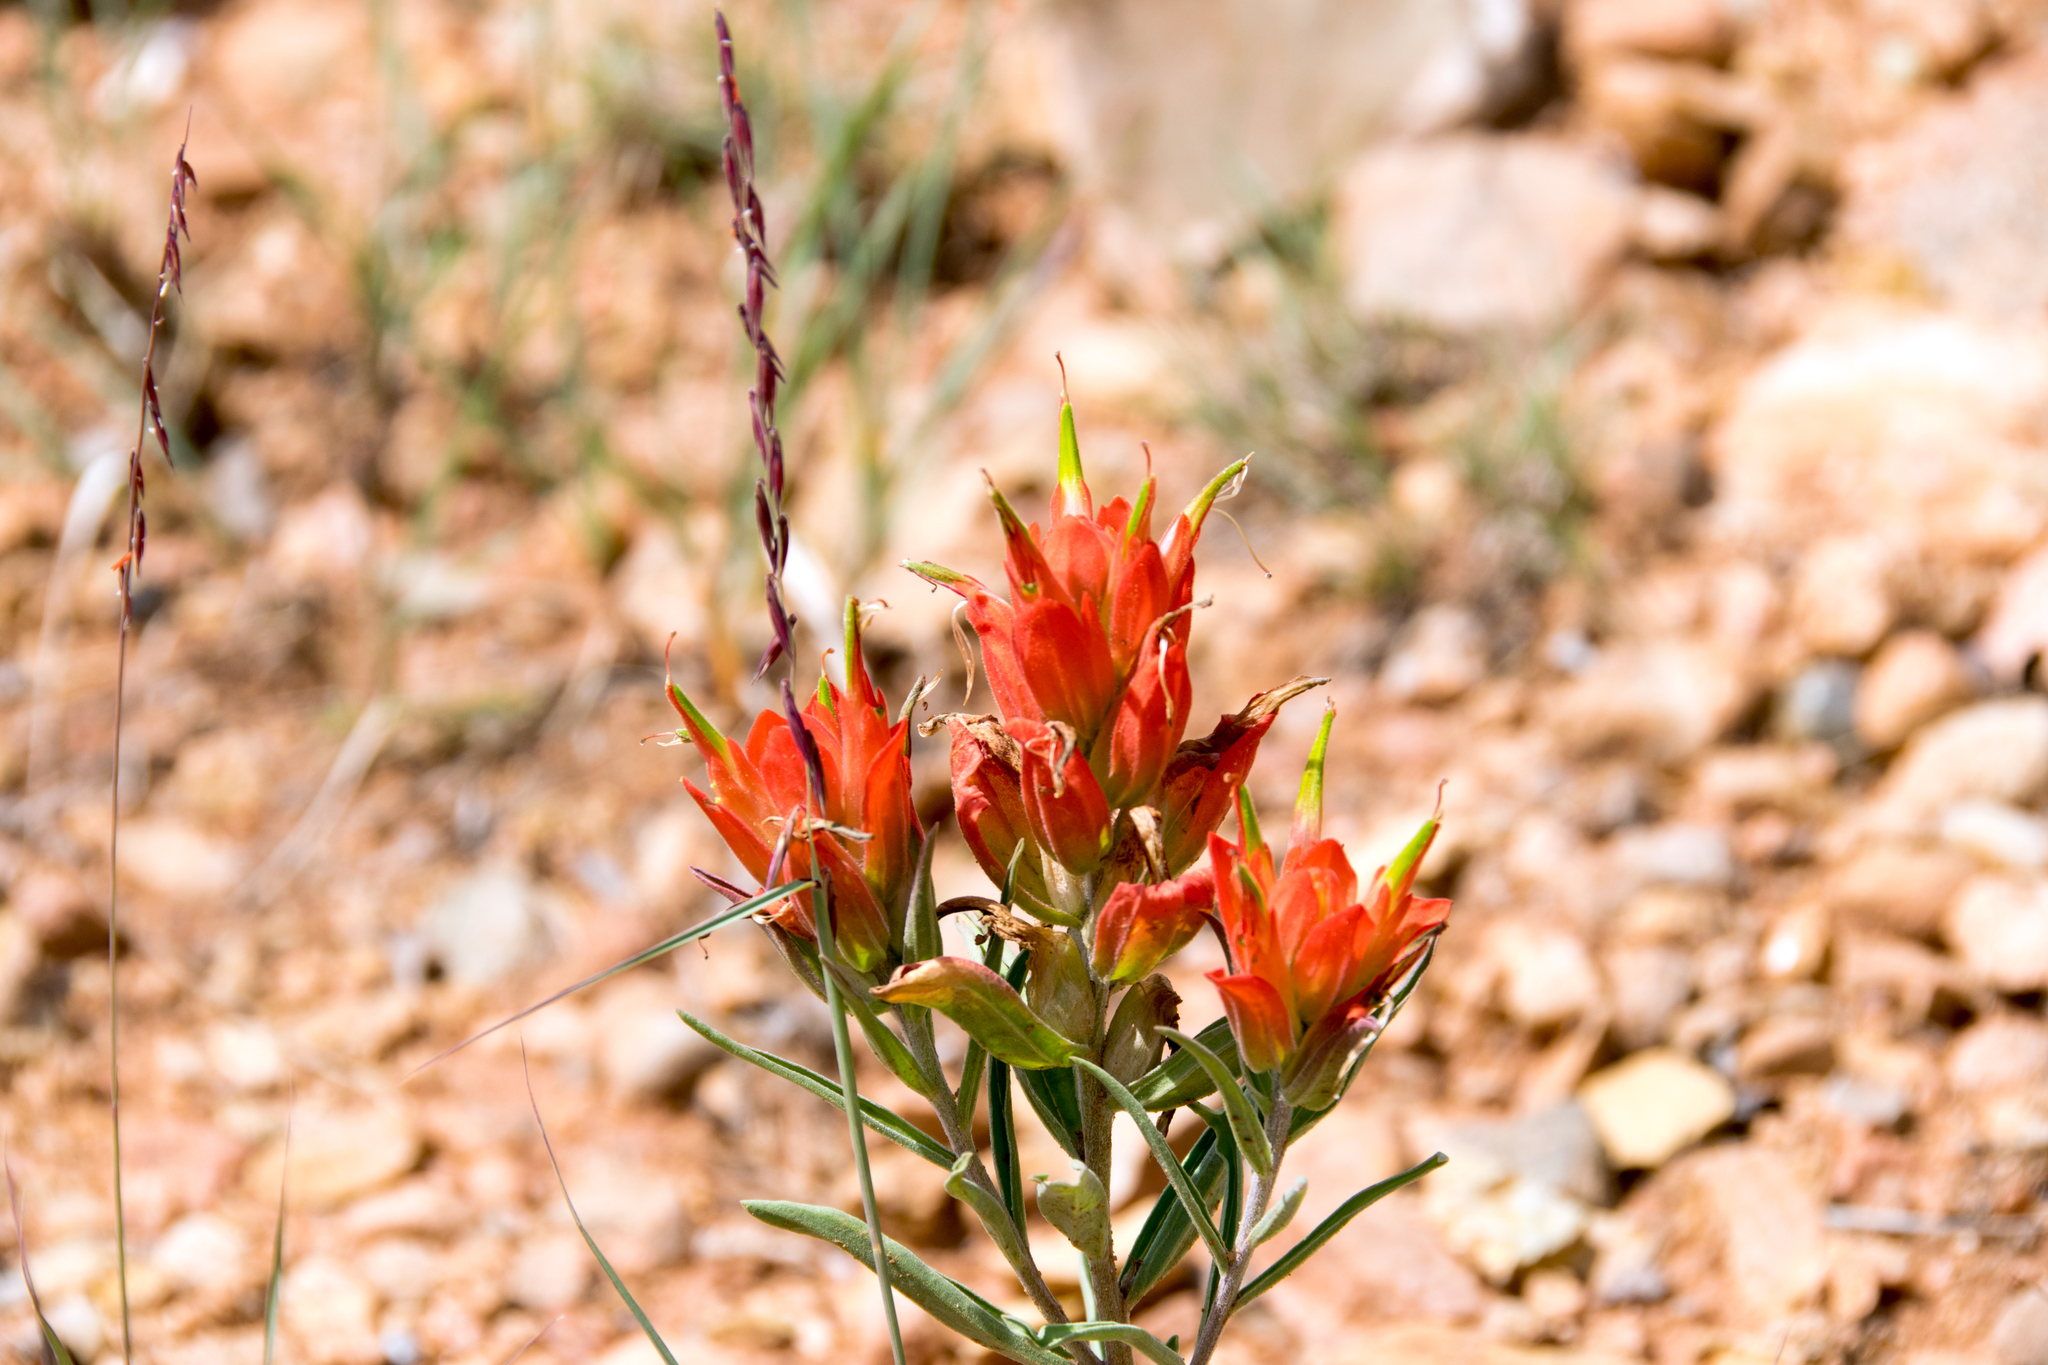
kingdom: Plantae
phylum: Tracheophyta
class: Magnoliopsida
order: Lamiales
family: Orobanchaceae
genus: Castilleja
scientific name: Castilleja integra
